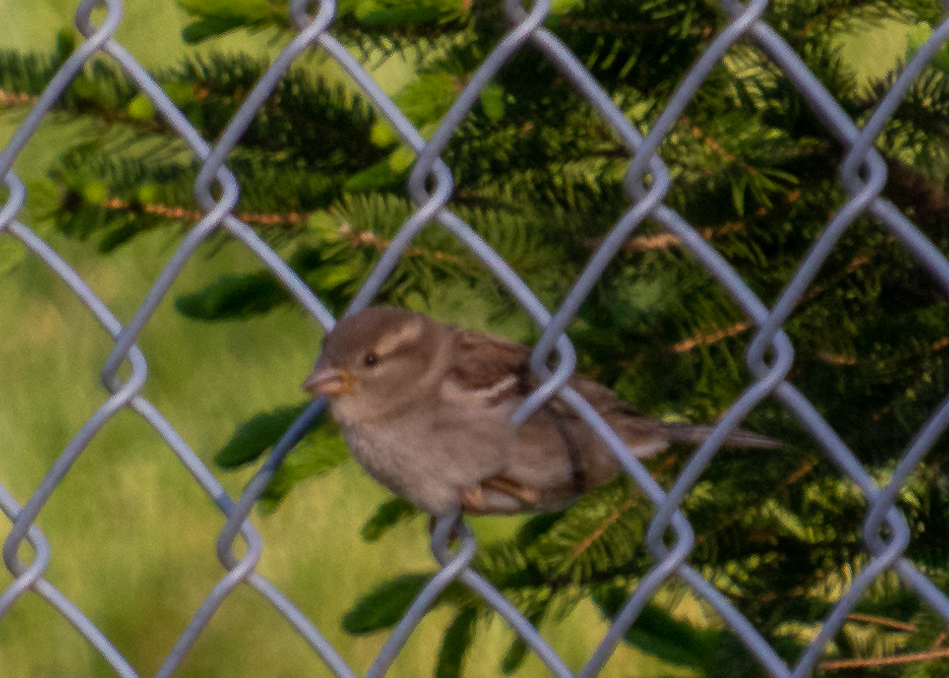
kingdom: Animalia
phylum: Chordata
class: Aves
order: Passeriformes
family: Passeridae
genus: Passer
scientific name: Passer domesticus
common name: House sparrow
